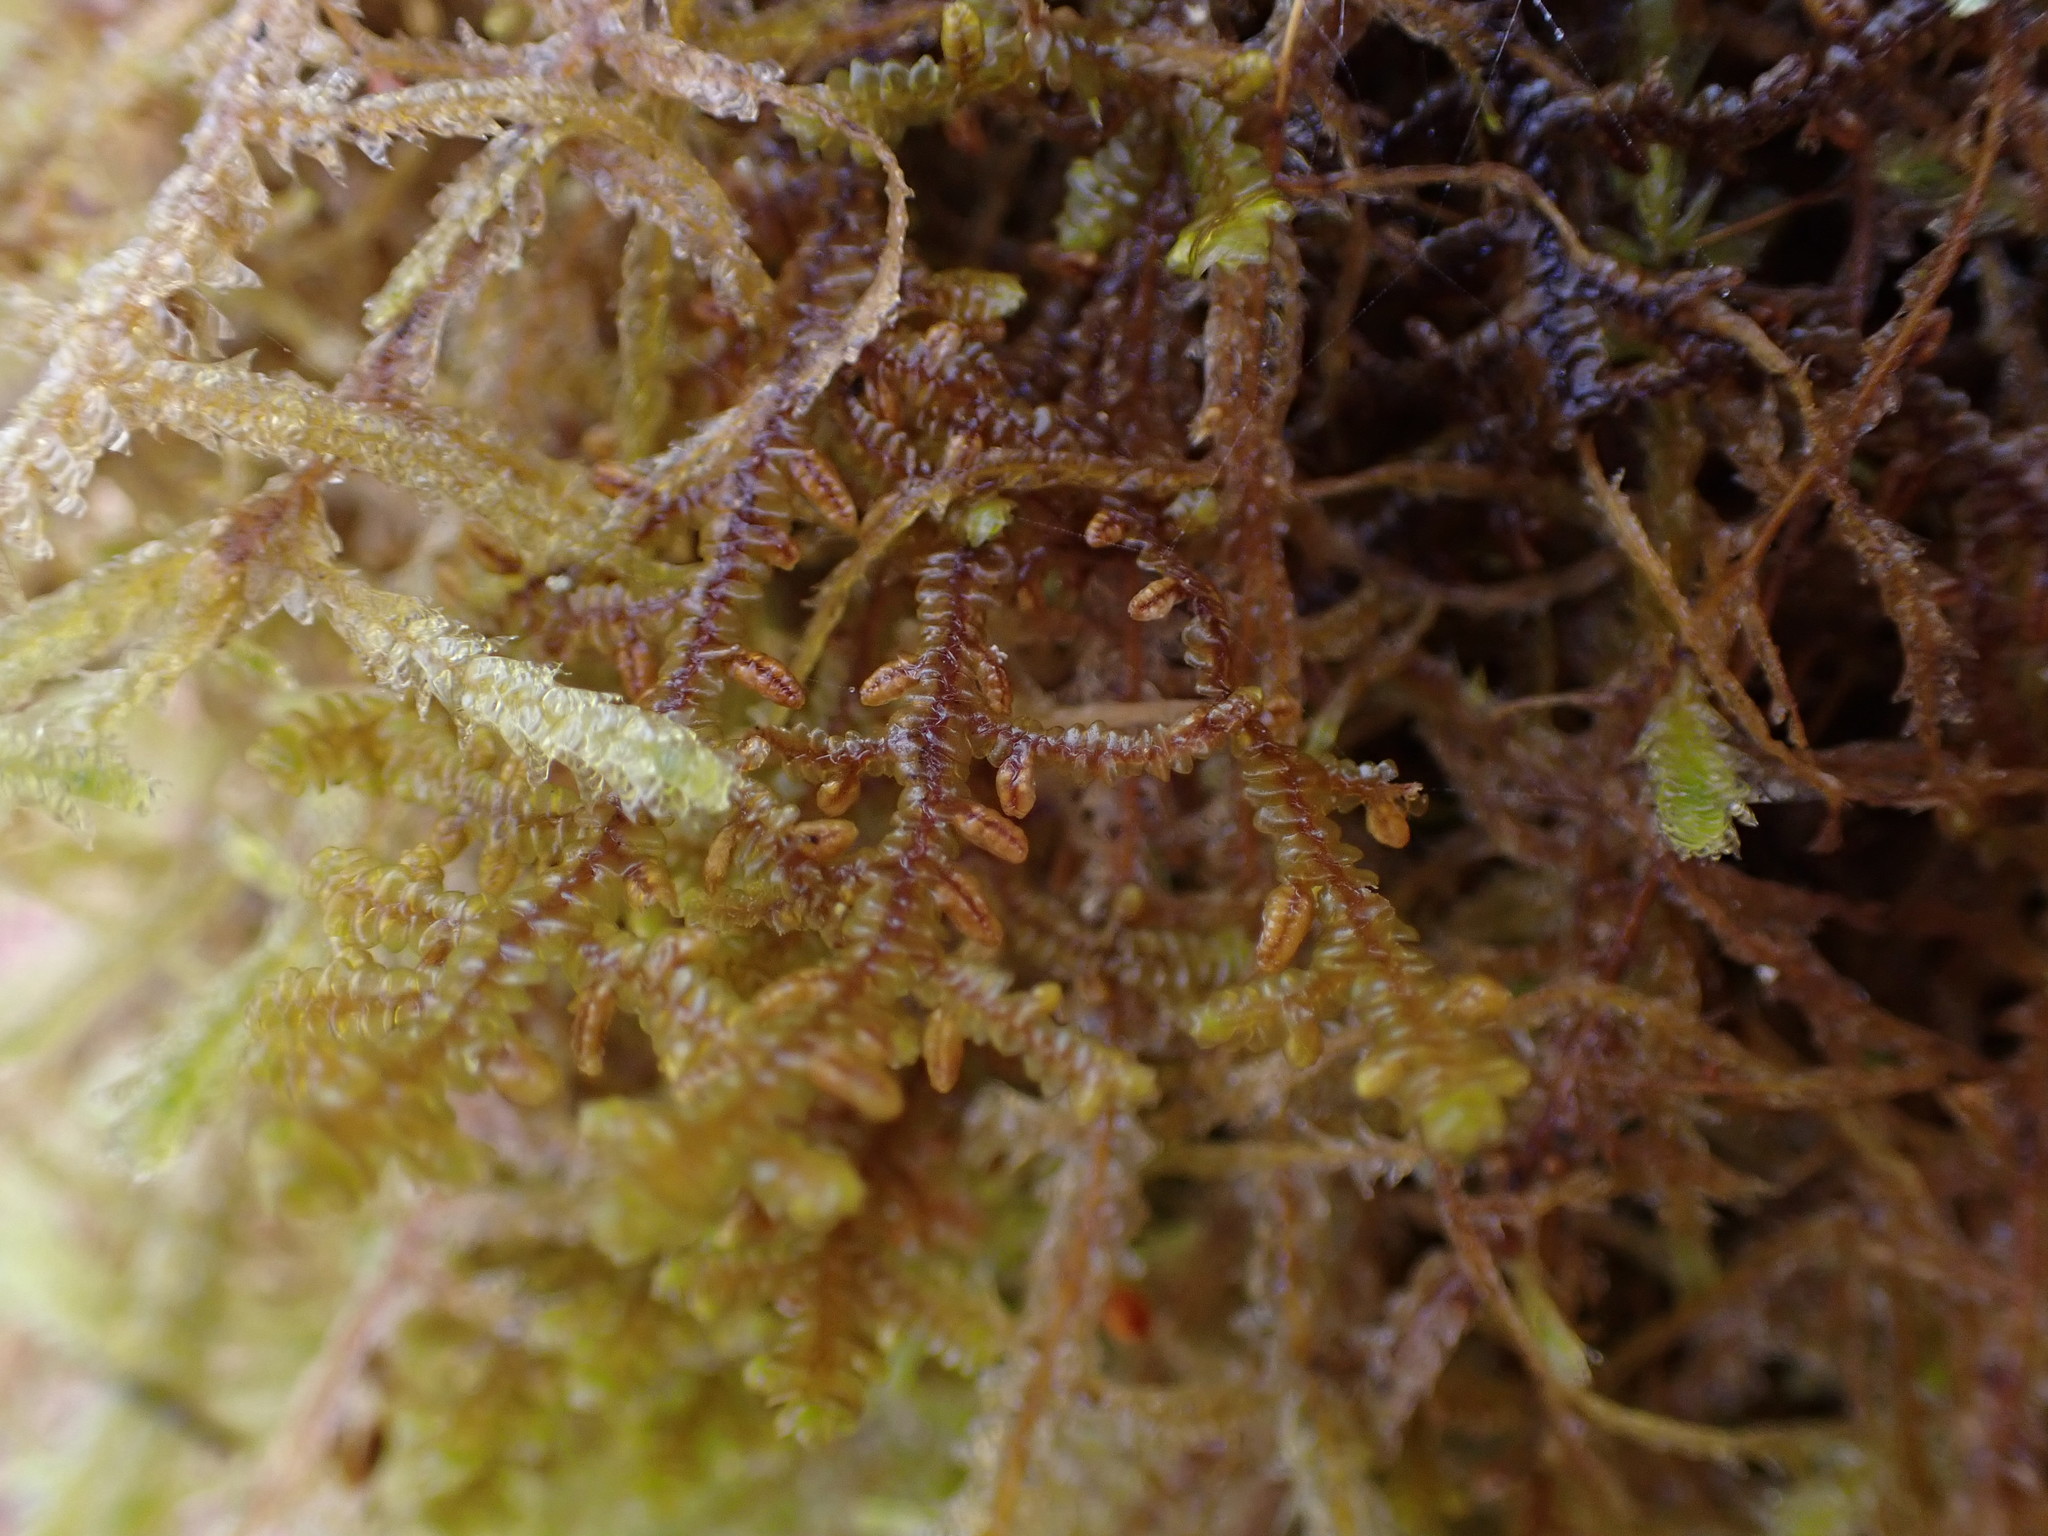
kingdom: Plantae
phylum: Marchantiophyta
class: Jungermanniopsida
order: Porellales
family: Porellaceae
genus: Porella
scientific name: Porella navicularis
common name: Tree ruffle liverwort
